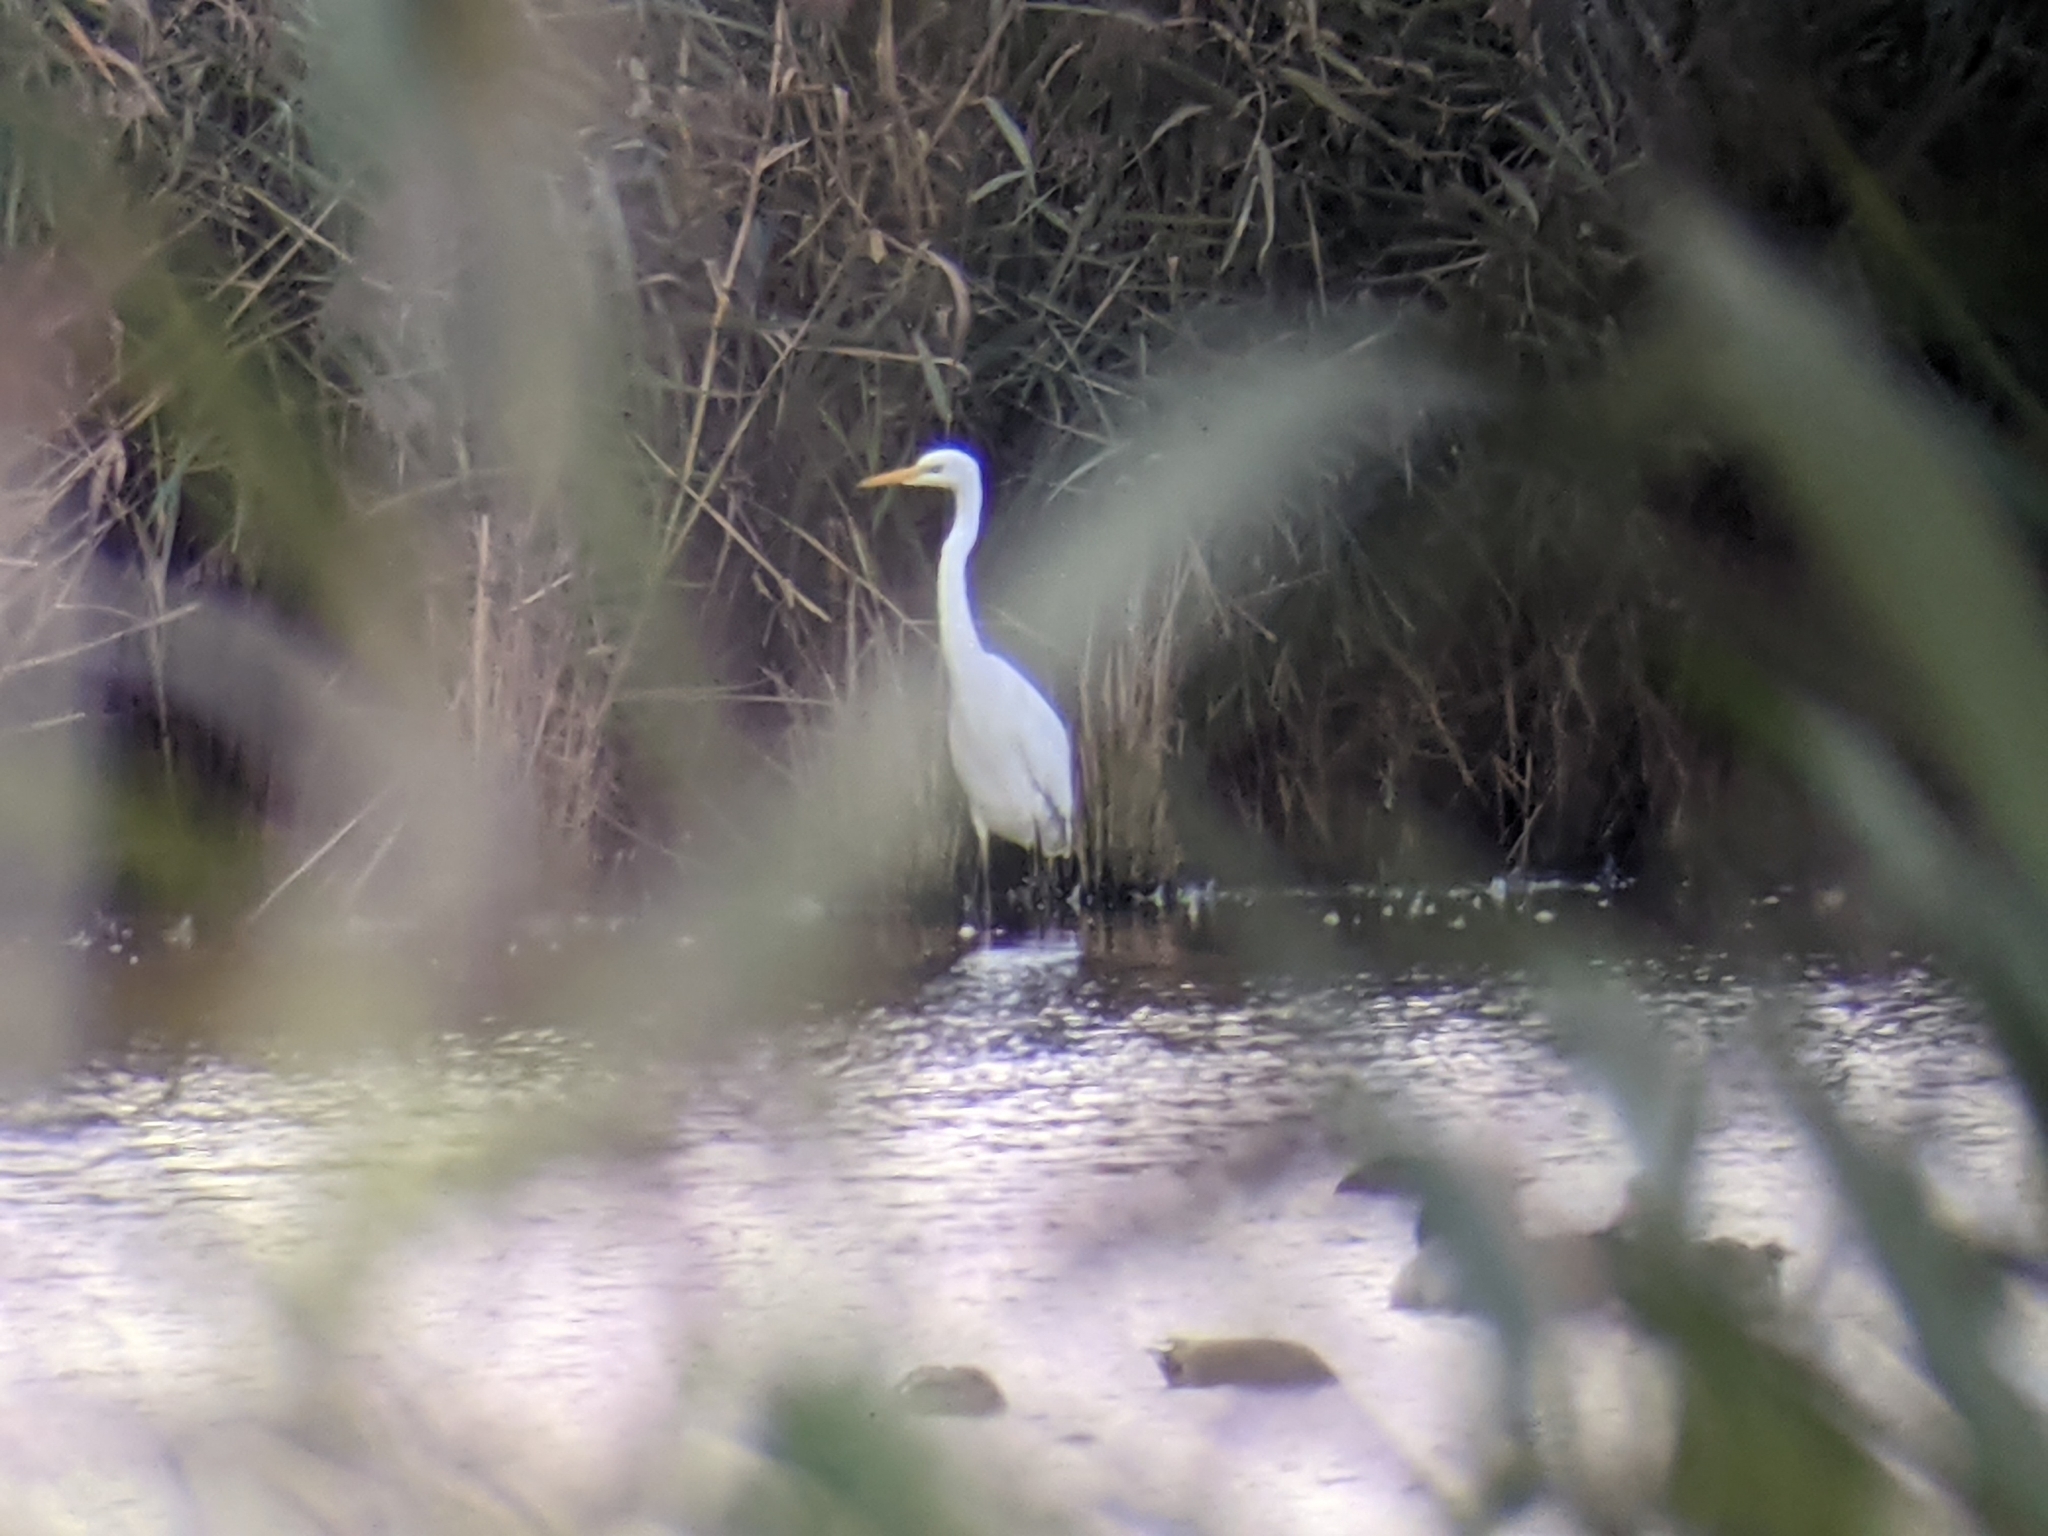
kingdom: Animalia
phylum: Chordata
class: Aves
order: Pelecaniformes
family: Ardeidae
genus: Ardea
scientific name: Ardea alba
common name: Great egret
